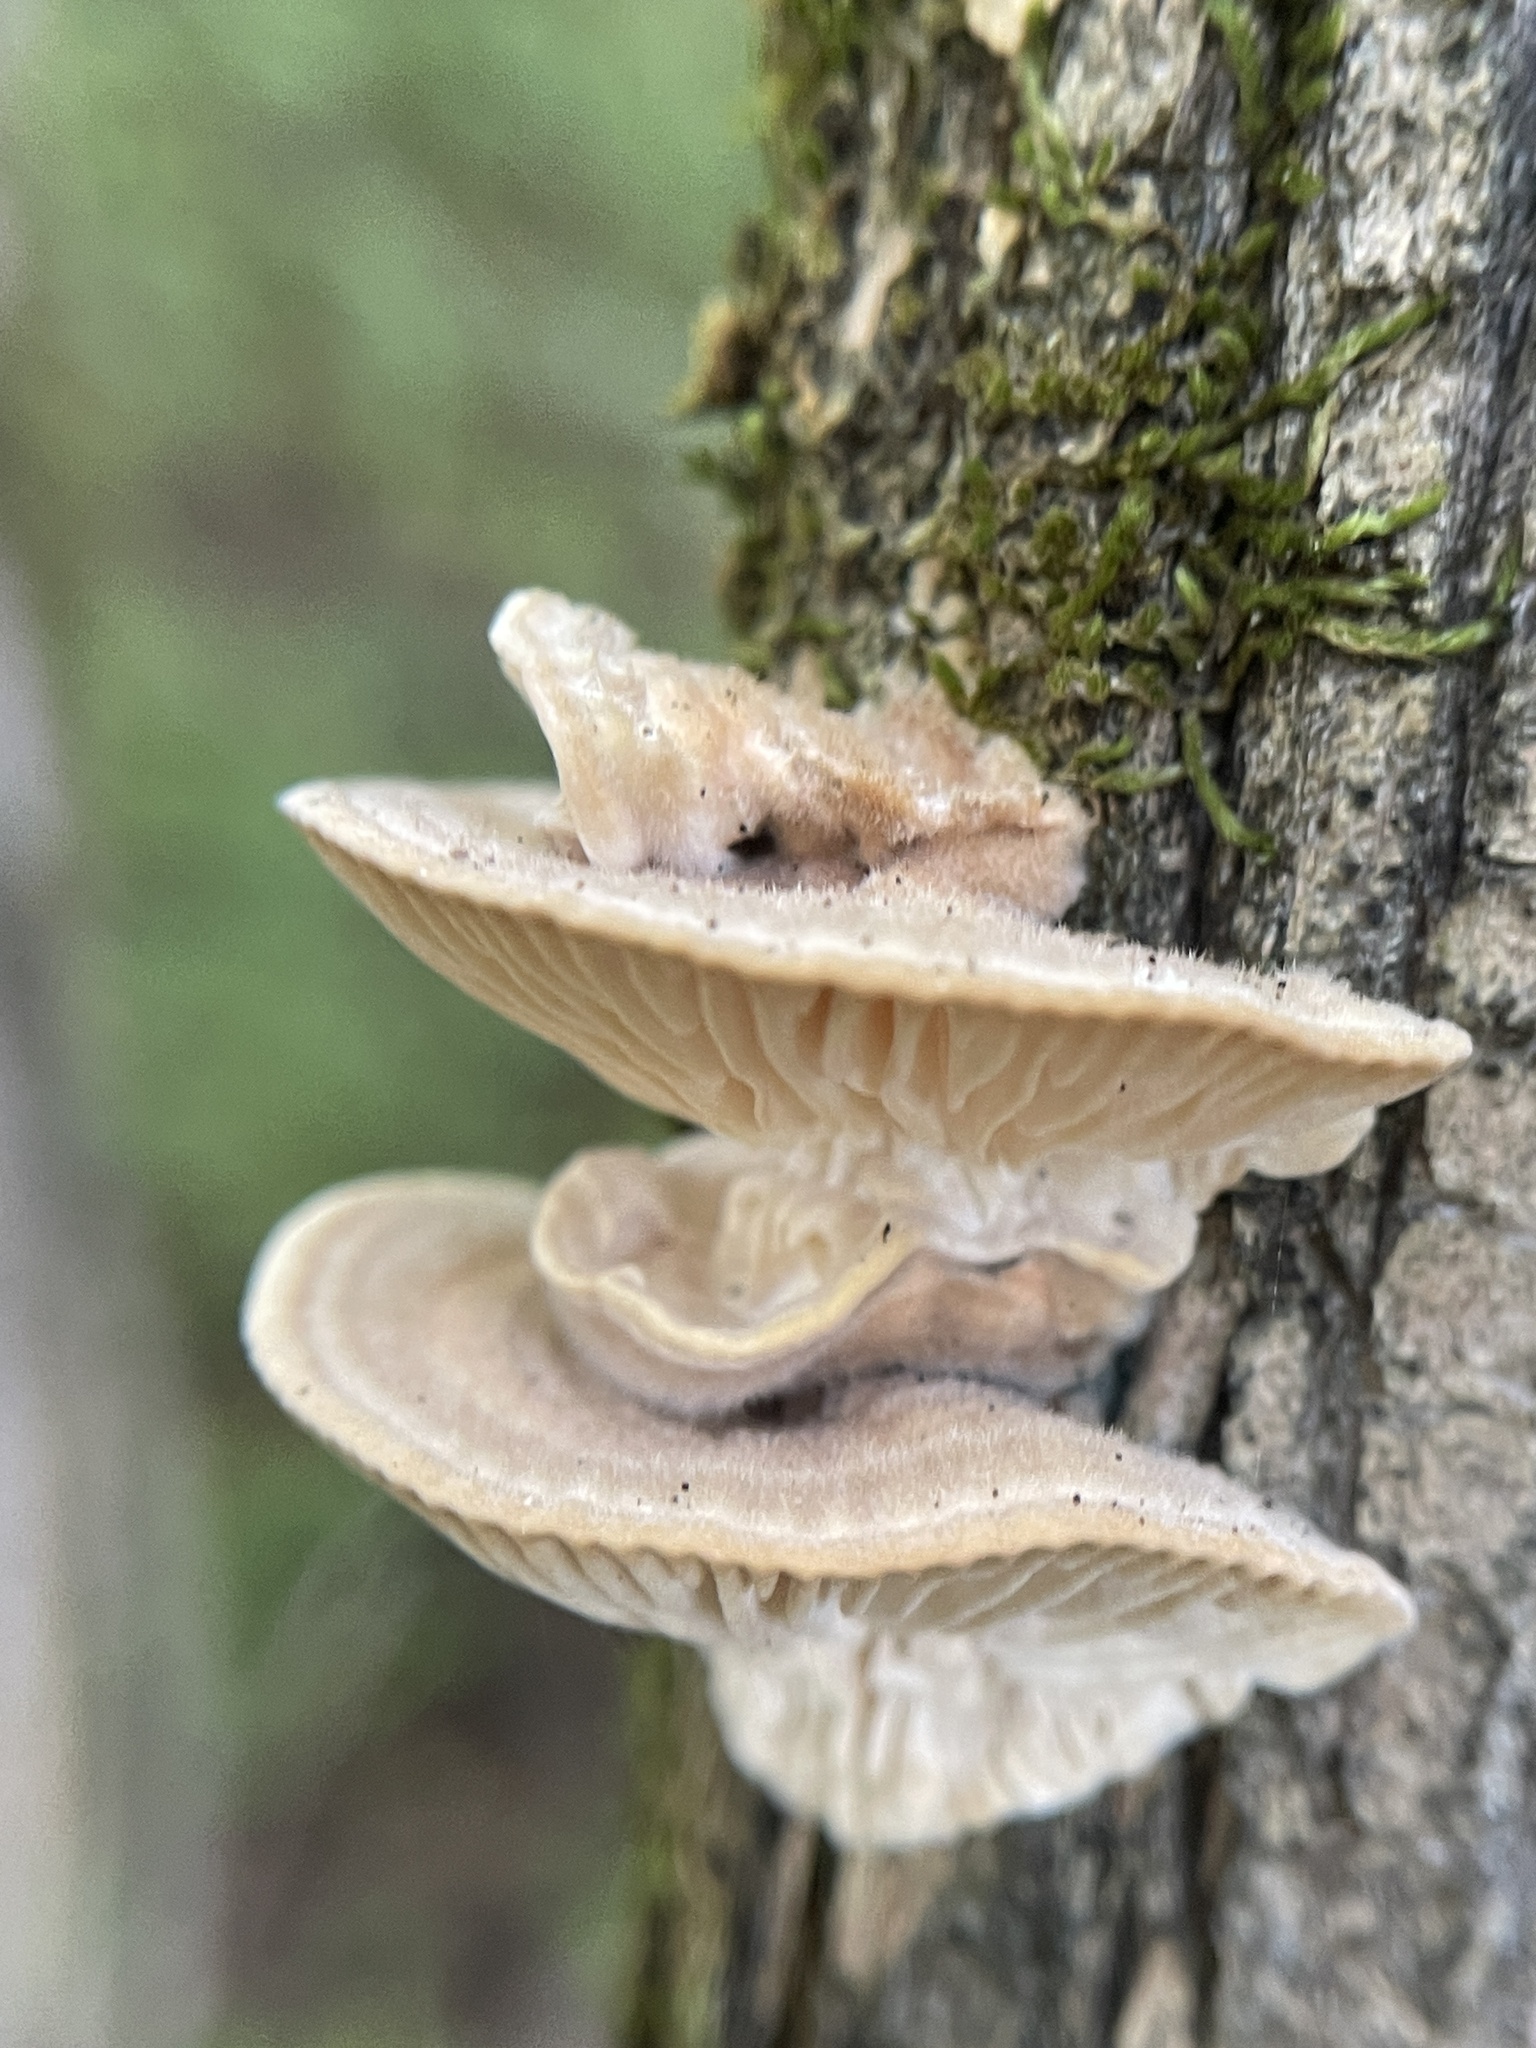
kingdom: Fungi
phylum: Basidiomycota
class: Agaricomycetes
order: Polyporales
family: Polyporaceae
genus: Lenzites
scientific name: Lenzites betulinus
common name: Birch mazegill
